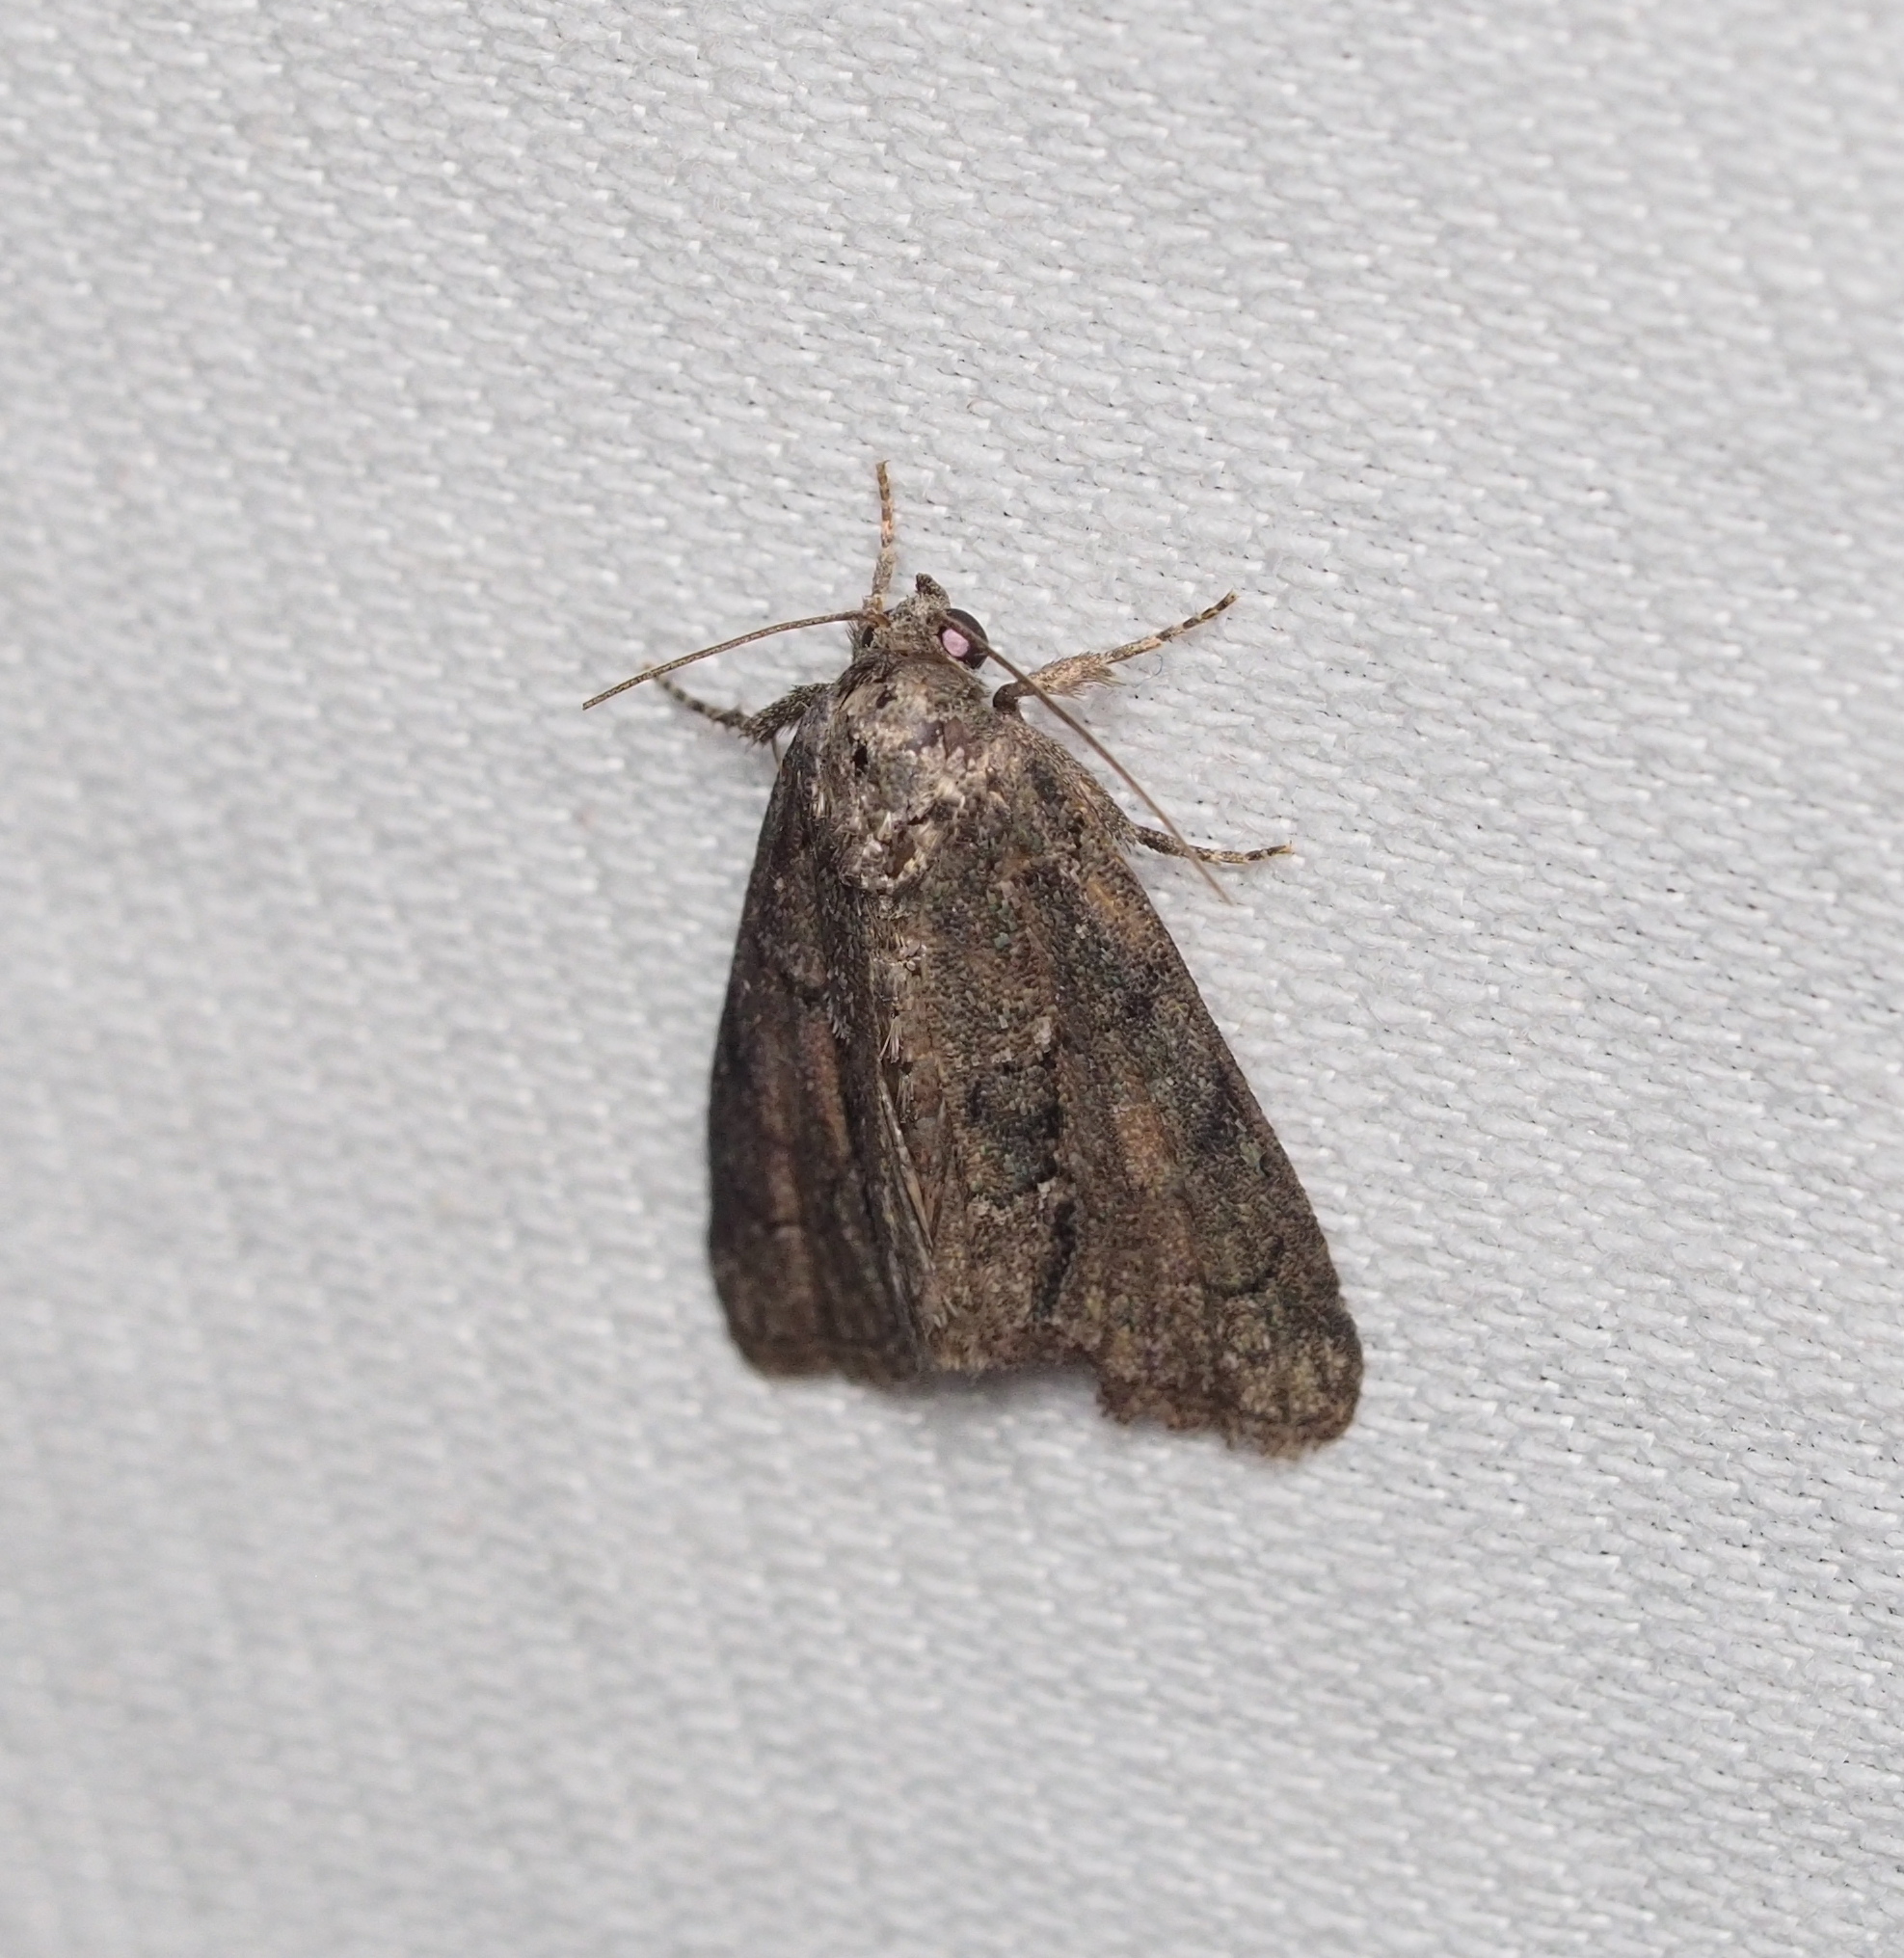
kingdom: Animalia
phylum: Arthropoda
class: Insecta
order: Lepidoptera
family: Noctuidae
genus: Cryphia
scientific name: Cryphia fraudatricula
